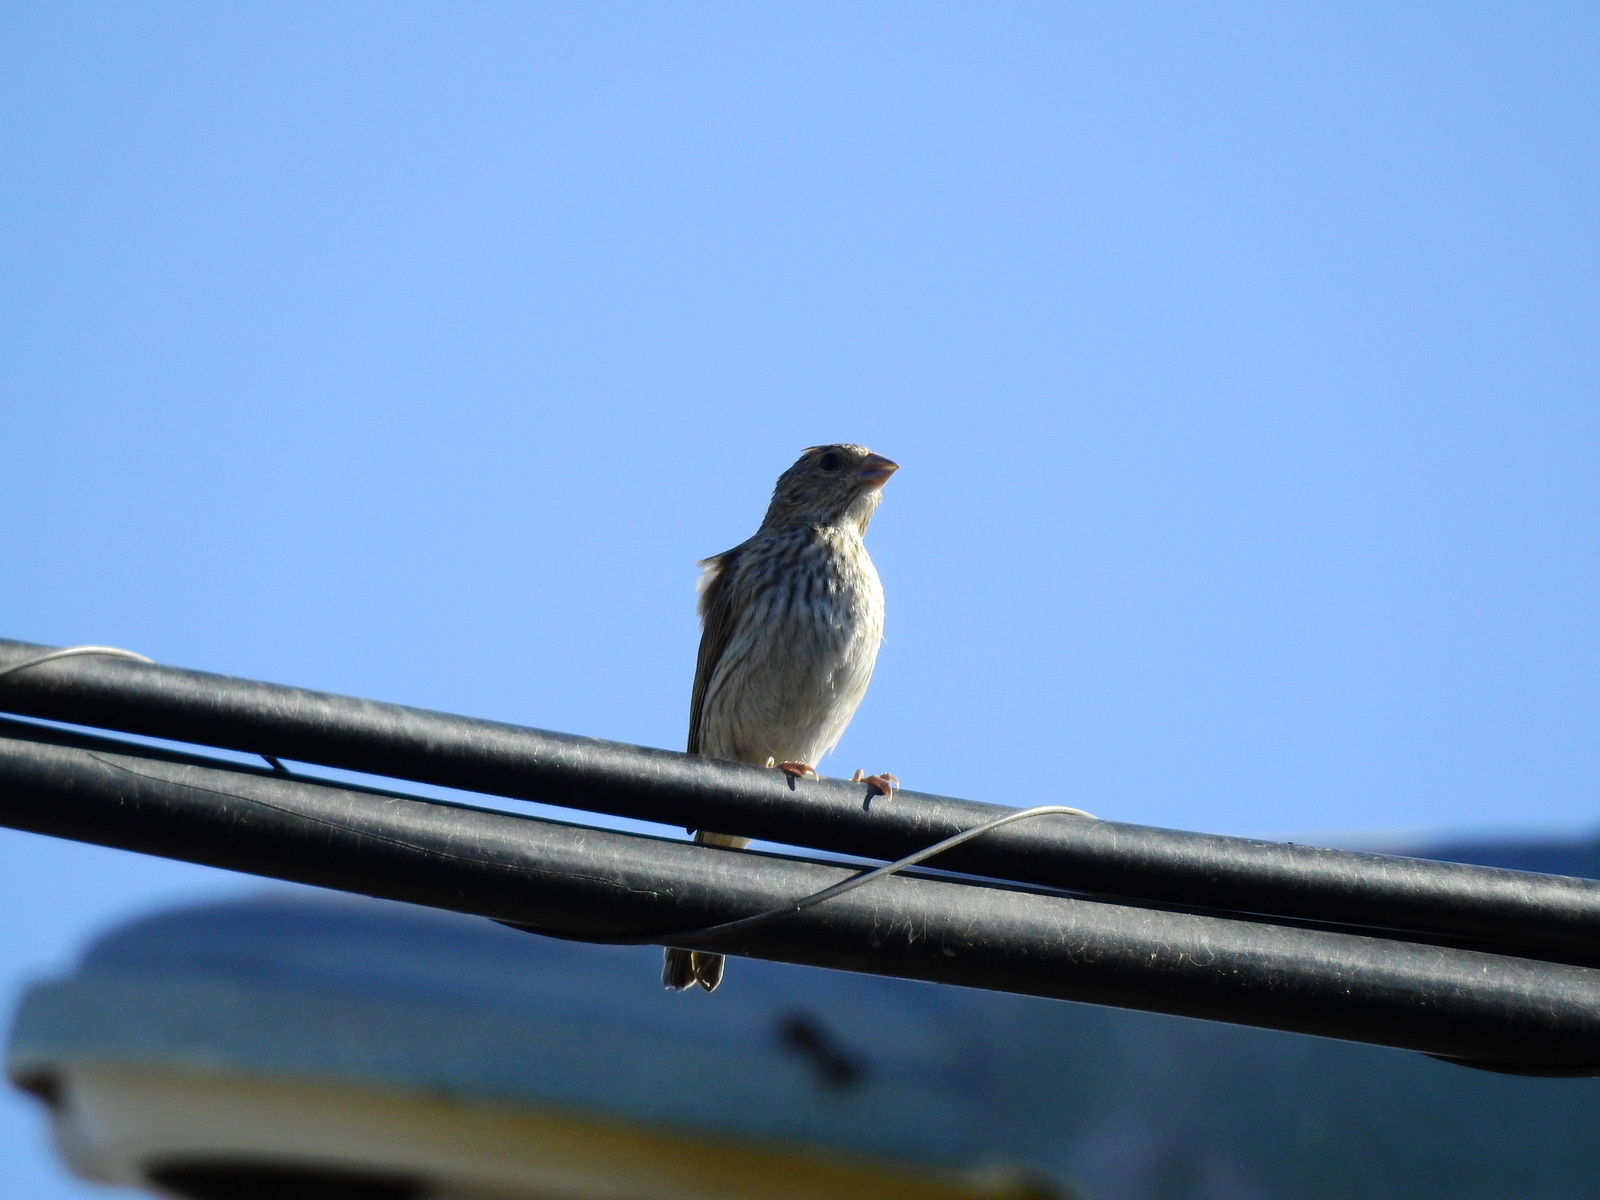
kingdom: Animalia
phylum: Chordata
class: Aves
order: Passeriformes
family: Thraupidae
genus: Sicalis
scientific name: Sicalis flaveola
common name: Saffron finch
